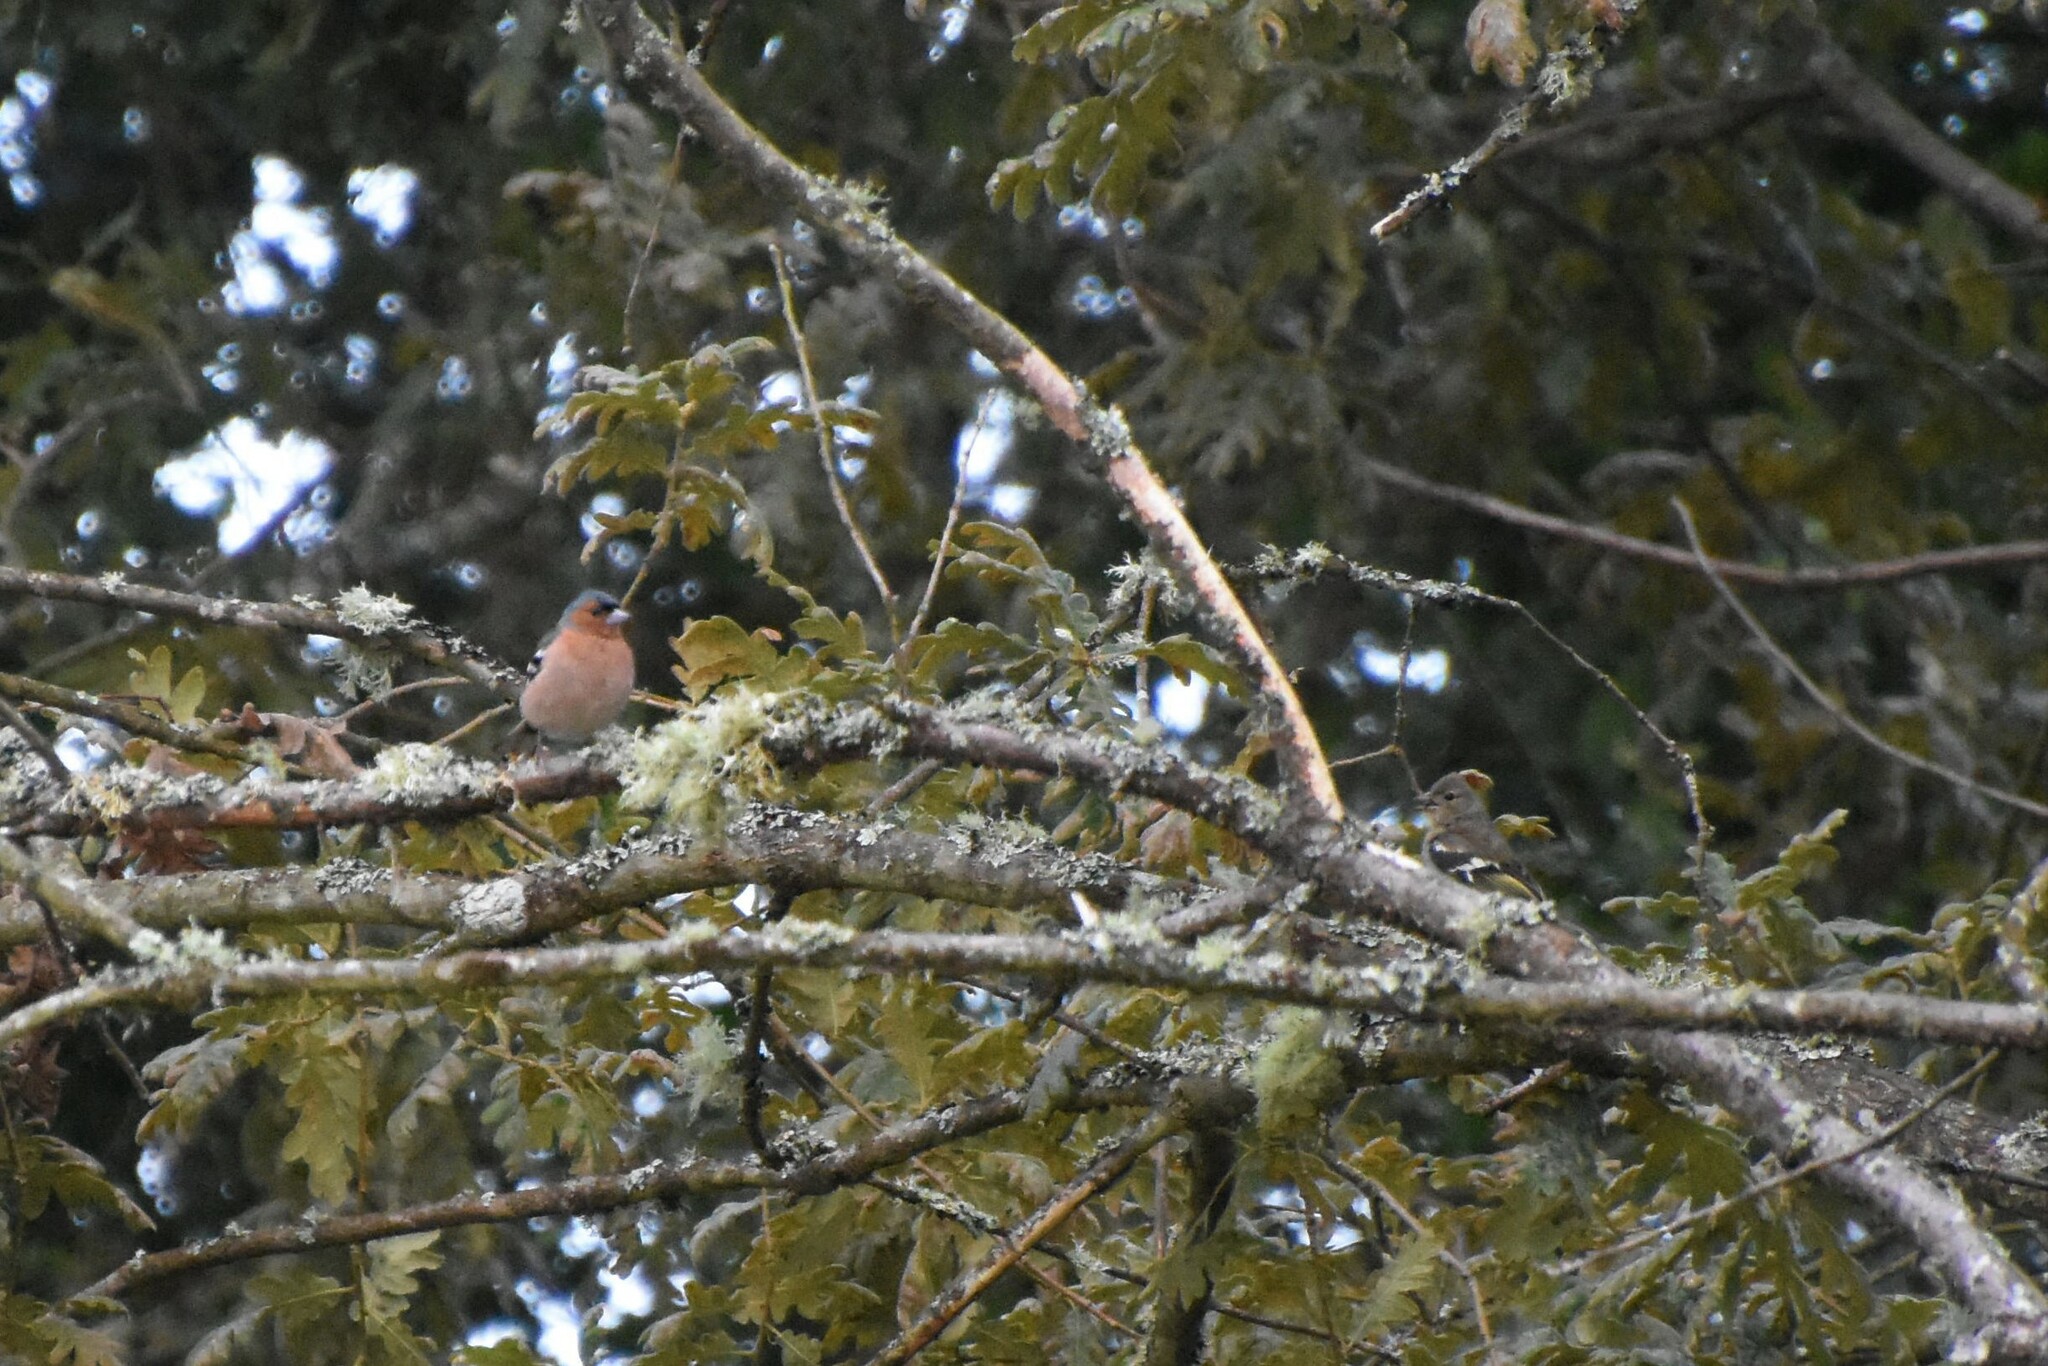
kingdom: Animalia
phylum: Chordata
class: Aves
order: Passeriformes
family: Fringillidae
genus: Fringilla
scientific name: Fringilla coelebs
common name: Common chaffinch
